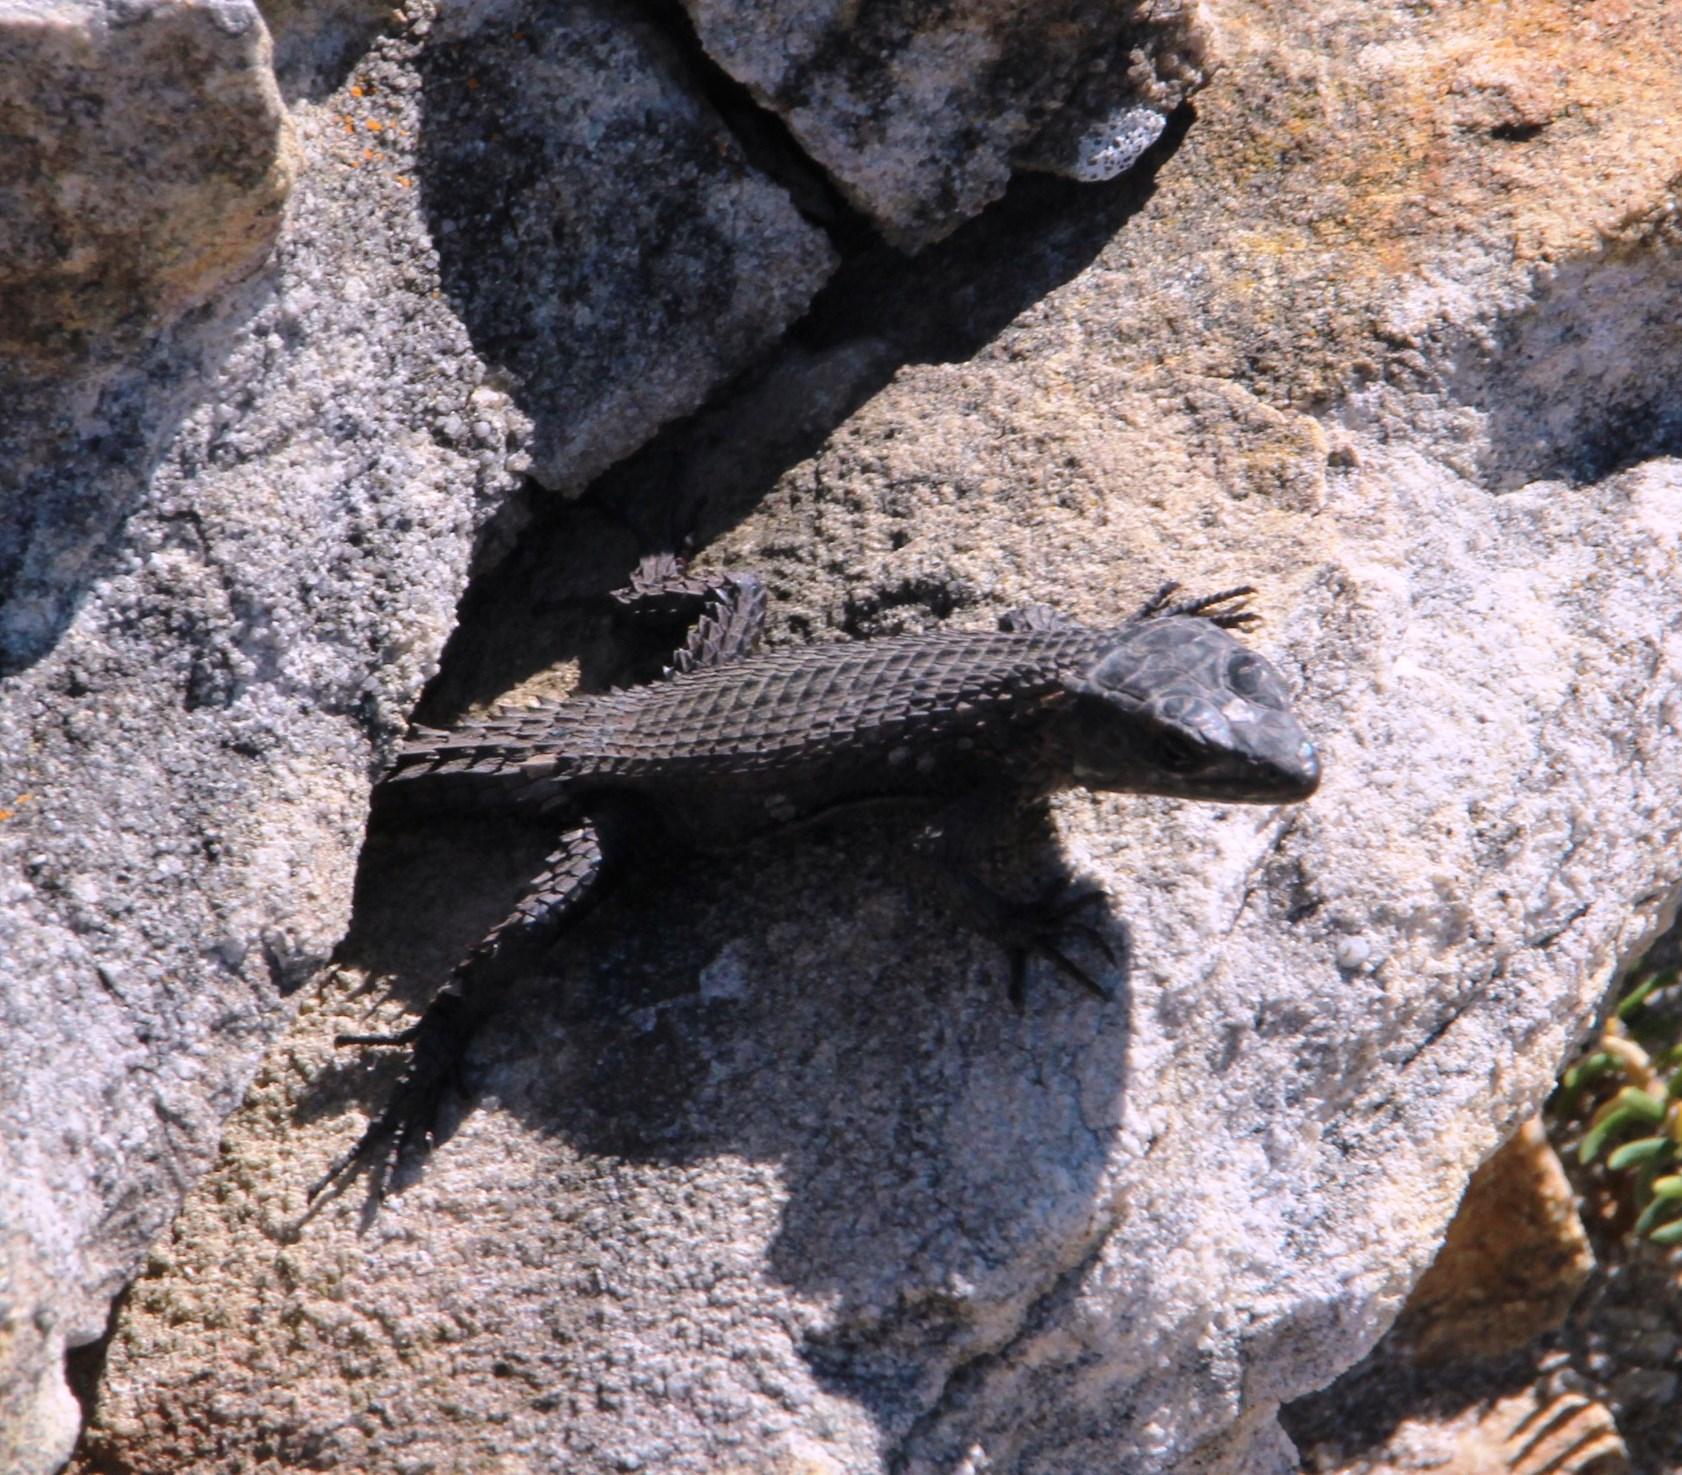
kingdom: Animalia
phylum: Chordata
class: Squamata
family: Cordylidae
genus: Cordylus
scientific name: Cordylus niger
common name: Black girdled lizard
